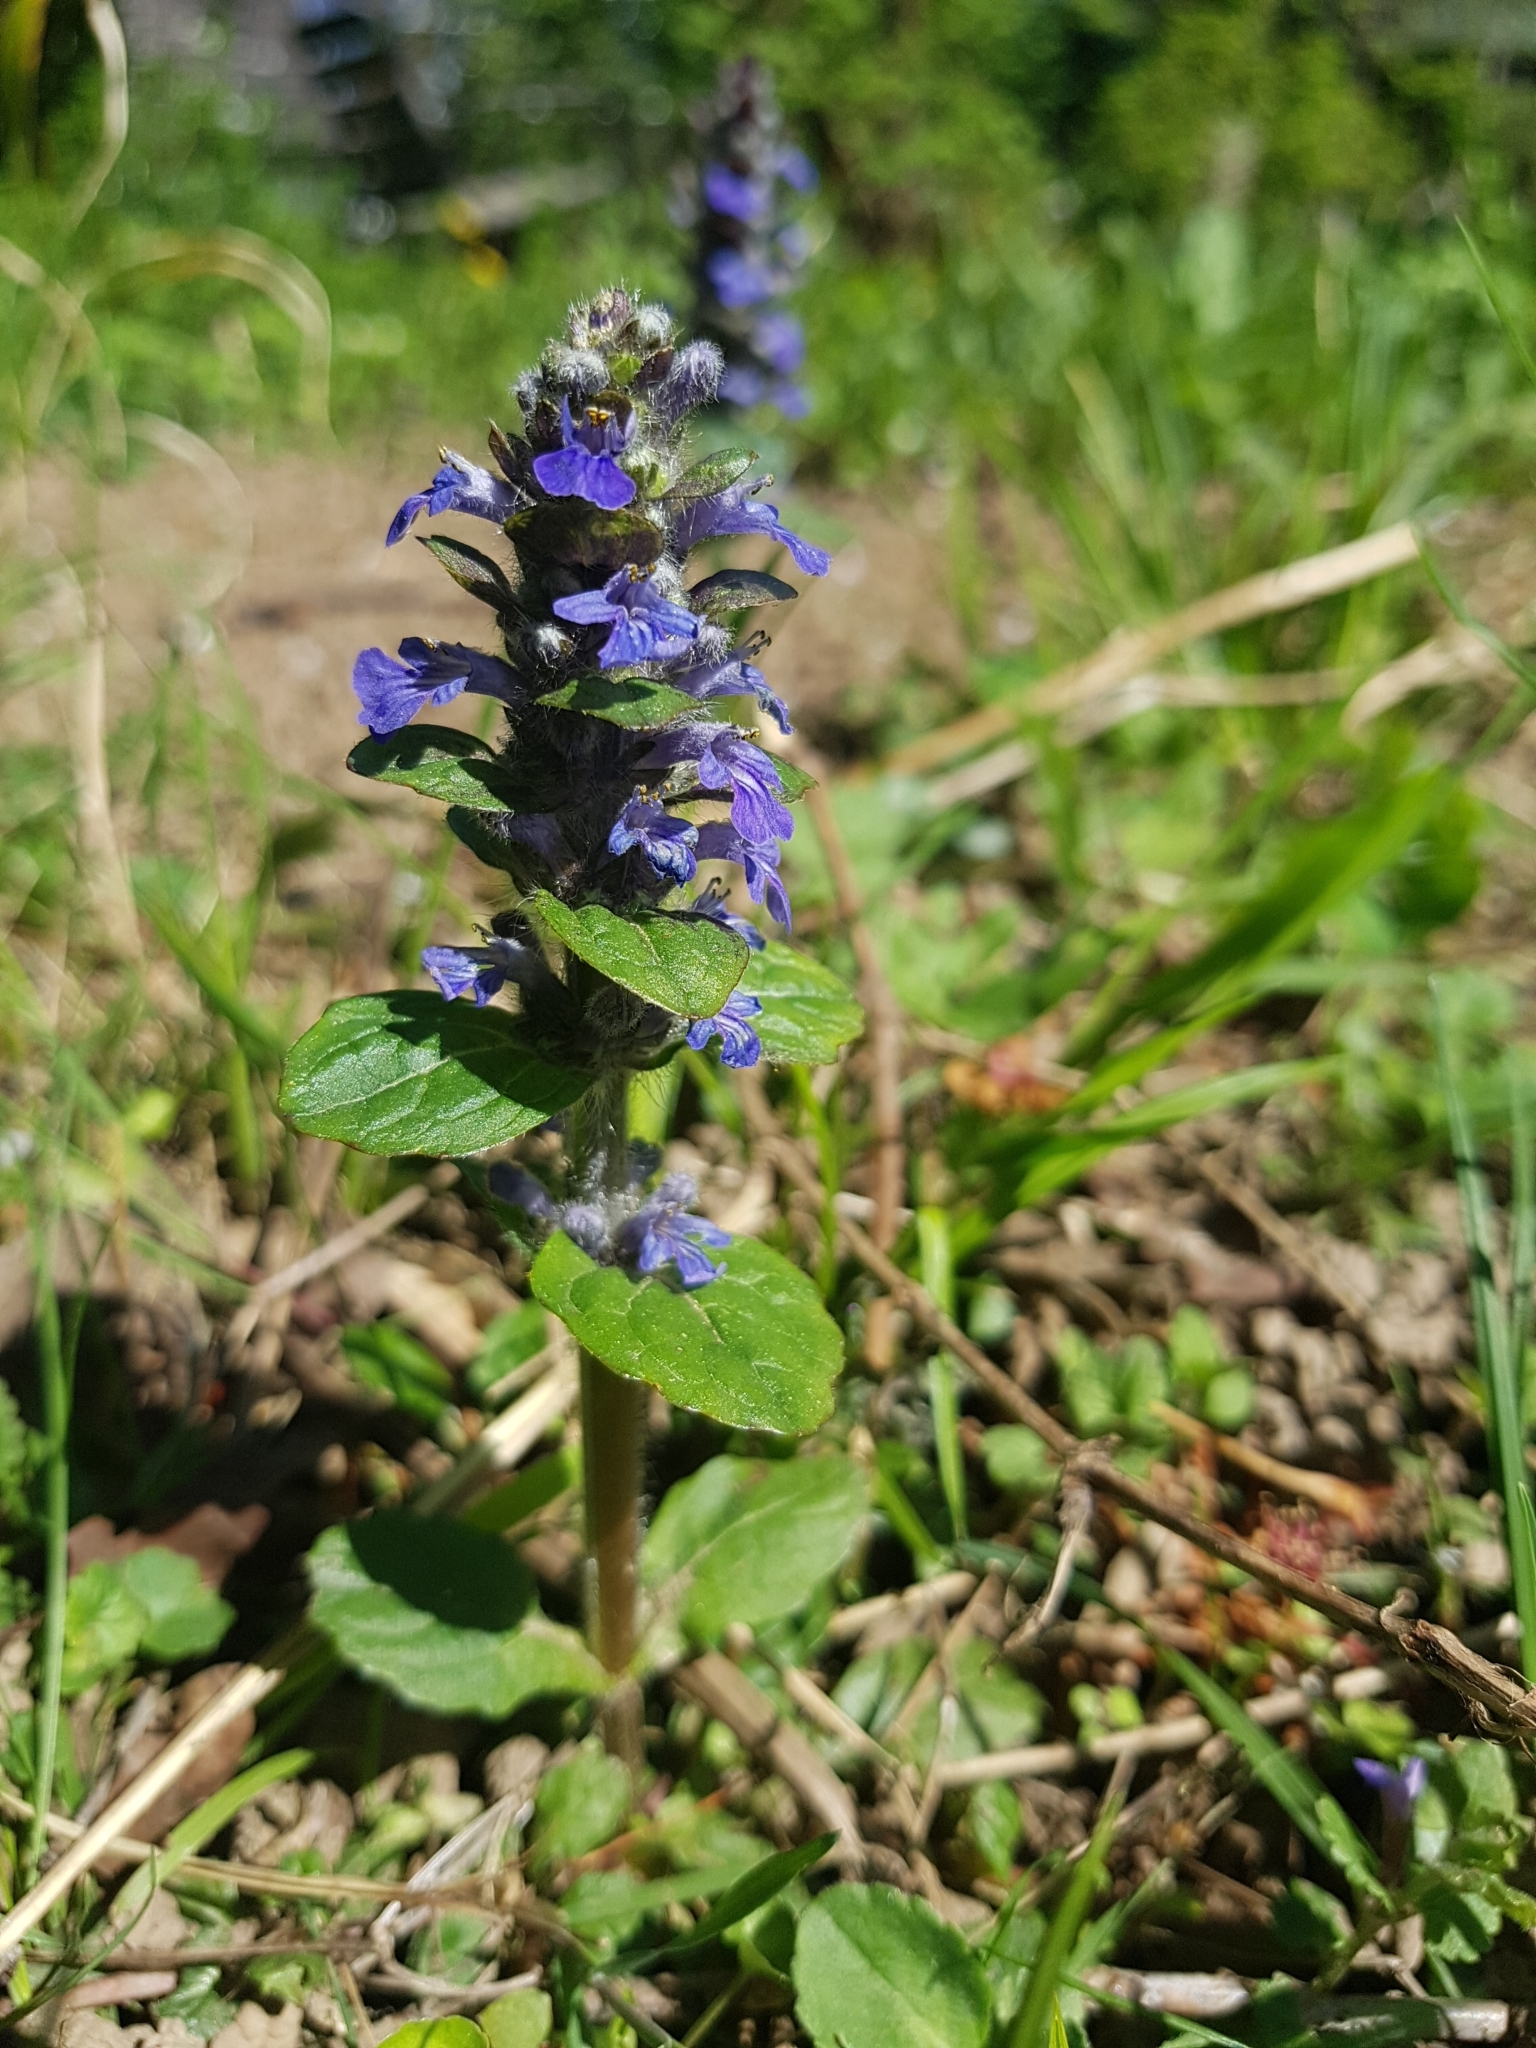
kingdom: Plantae
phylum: Tracheophyta
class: Magnoliopsida
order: Lamiales
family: Lamiaceae
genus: Ajuga
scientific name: Ajuga reptans
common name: Bugle
